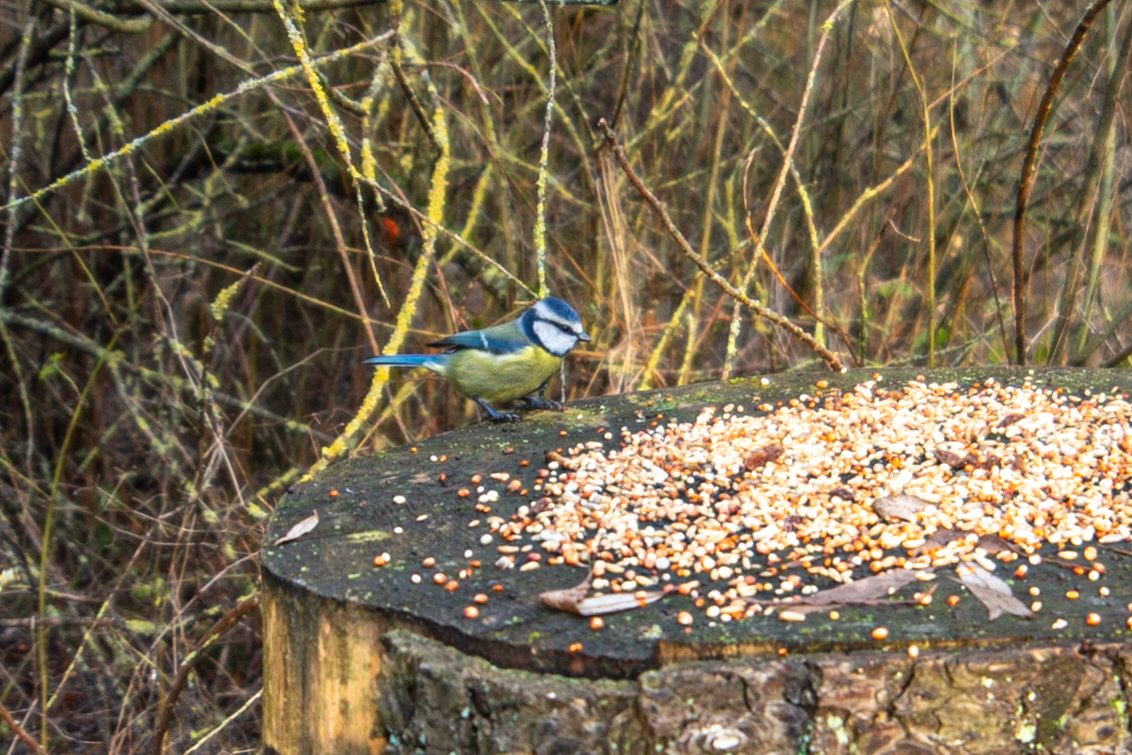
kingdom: Animalia
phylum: Chordata
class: Aves
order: Passeriformes
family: Paridae
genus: Cyanistes
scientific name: Cyanistes caeruleus
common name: Eurasian blue tit
